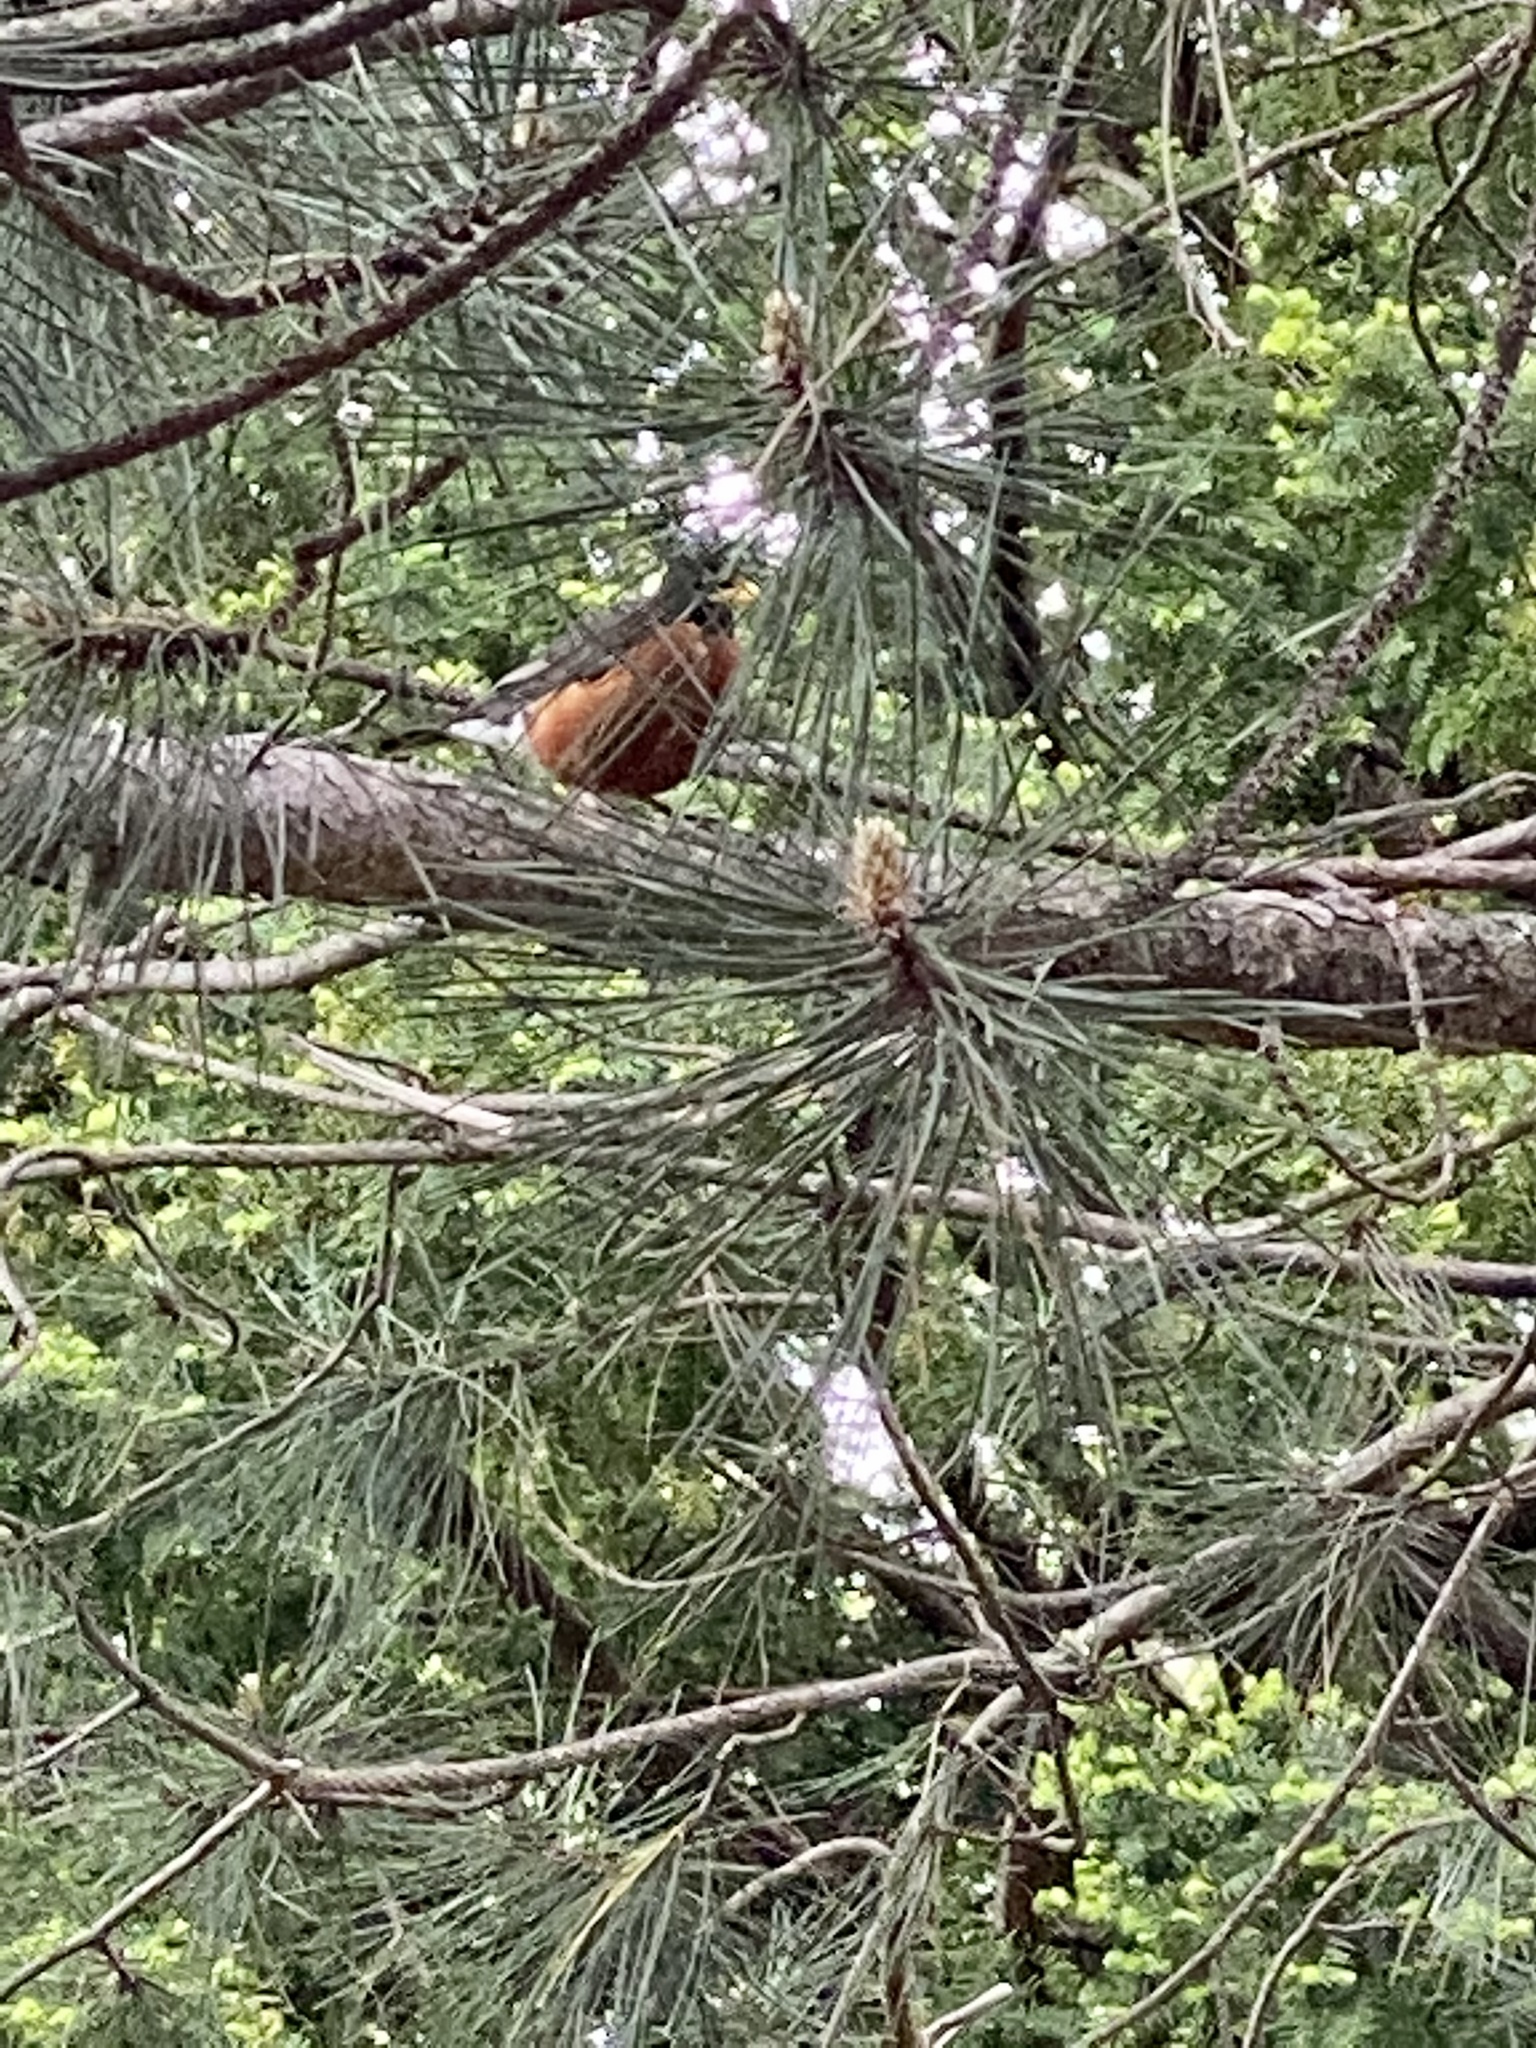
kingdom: Animalia
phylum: Chordata
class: Aves
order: Passeriformes
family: Turdidae
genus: Turdus
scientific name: Turdus migratorius
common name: American robin
